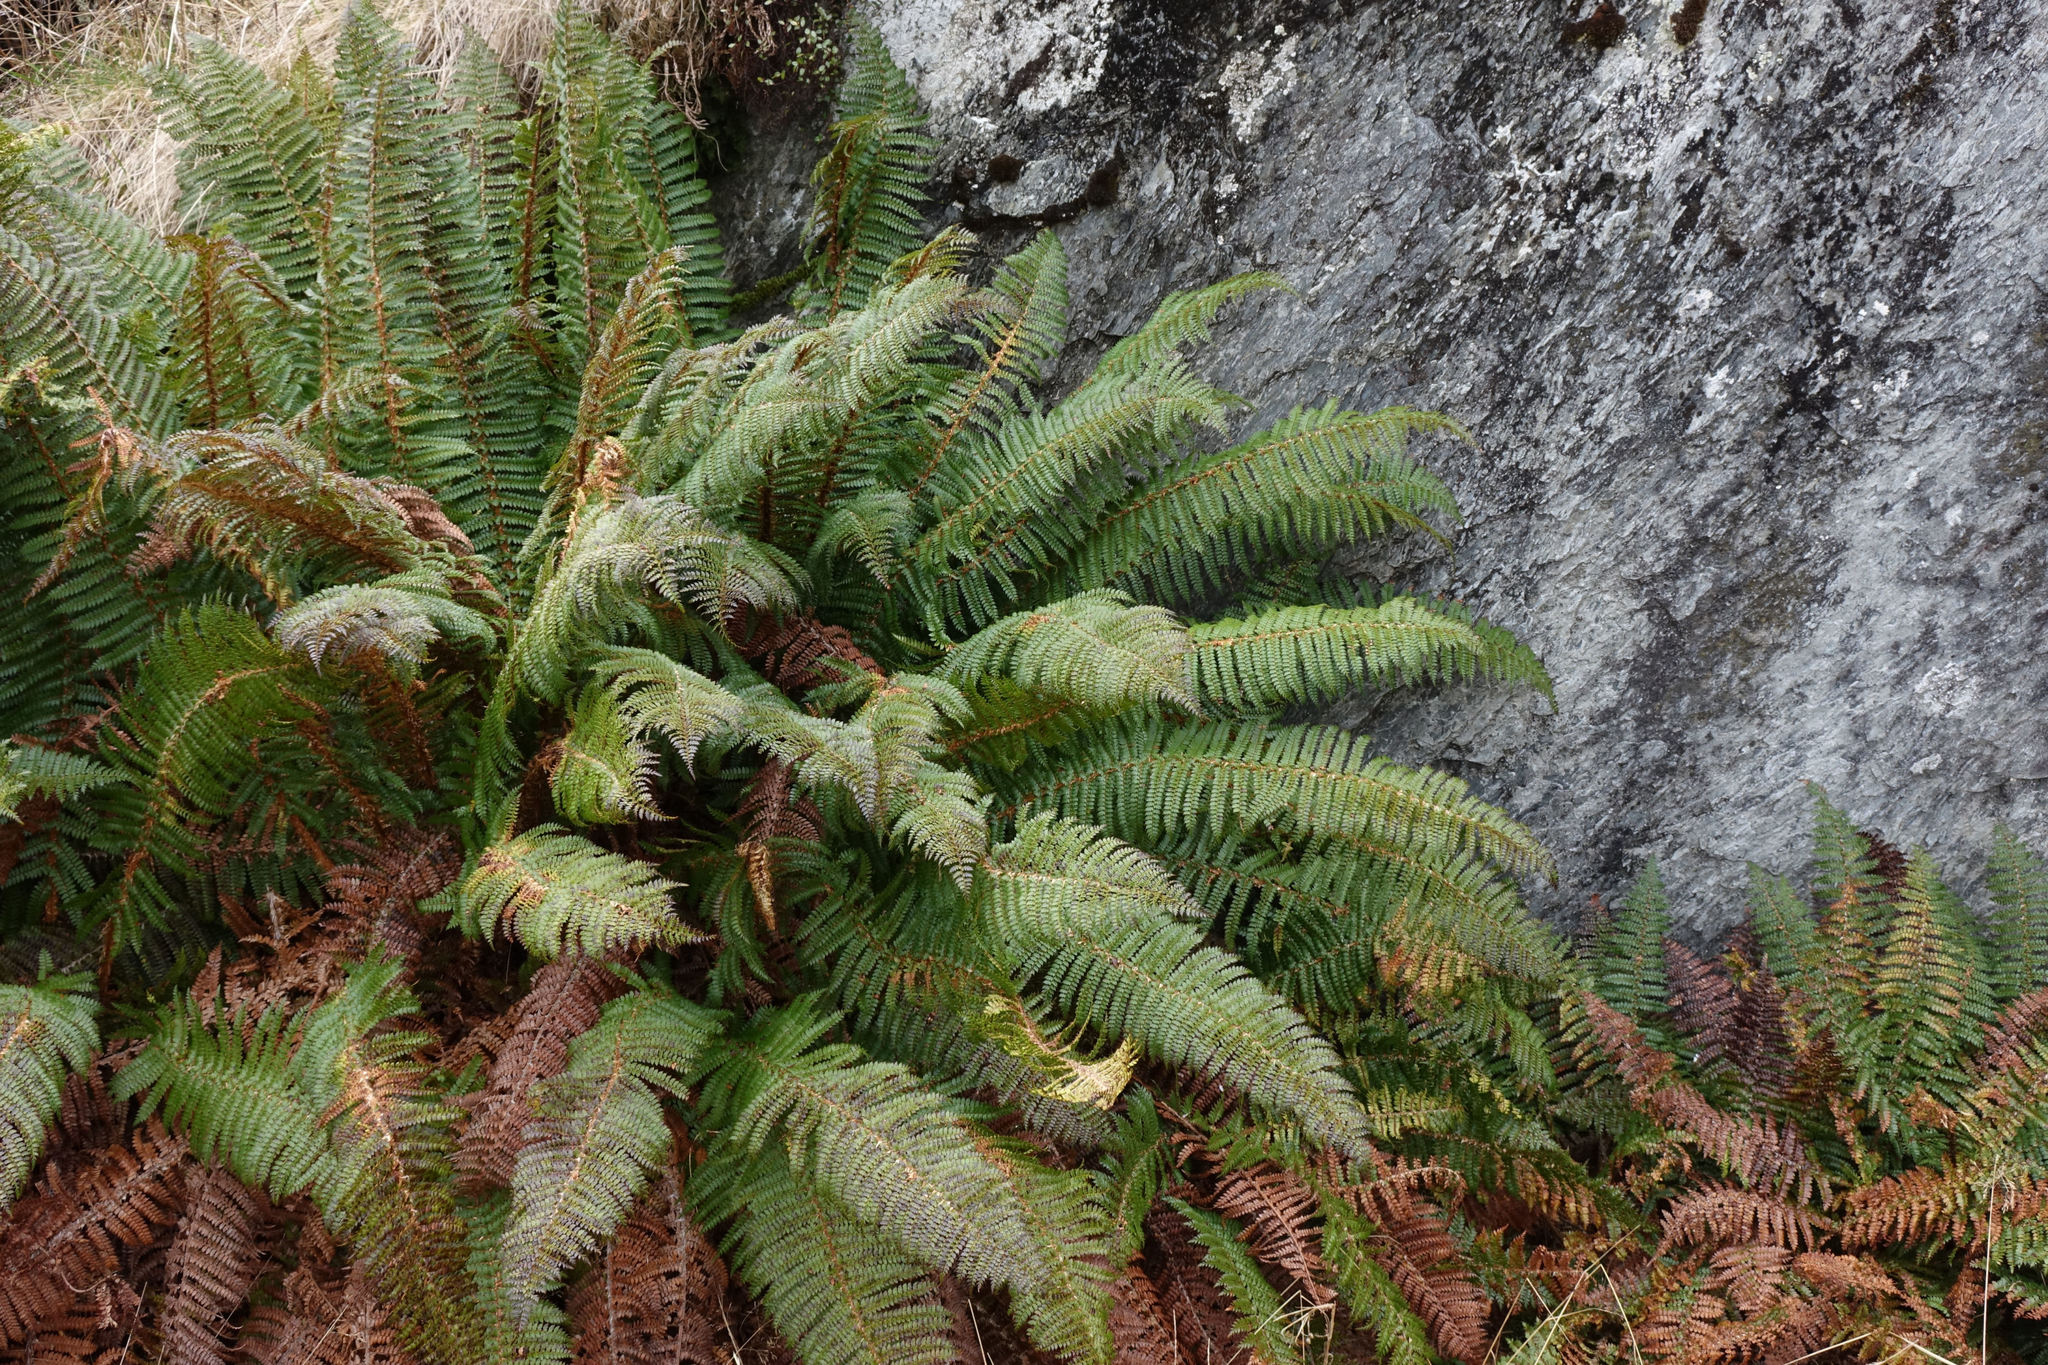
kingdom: Plantae
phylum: Tracheophyta
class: Polypodiopsida
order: Polypodiales
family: Dryopteridaceae
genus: Polystichum
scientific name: Polystichum vestitum
